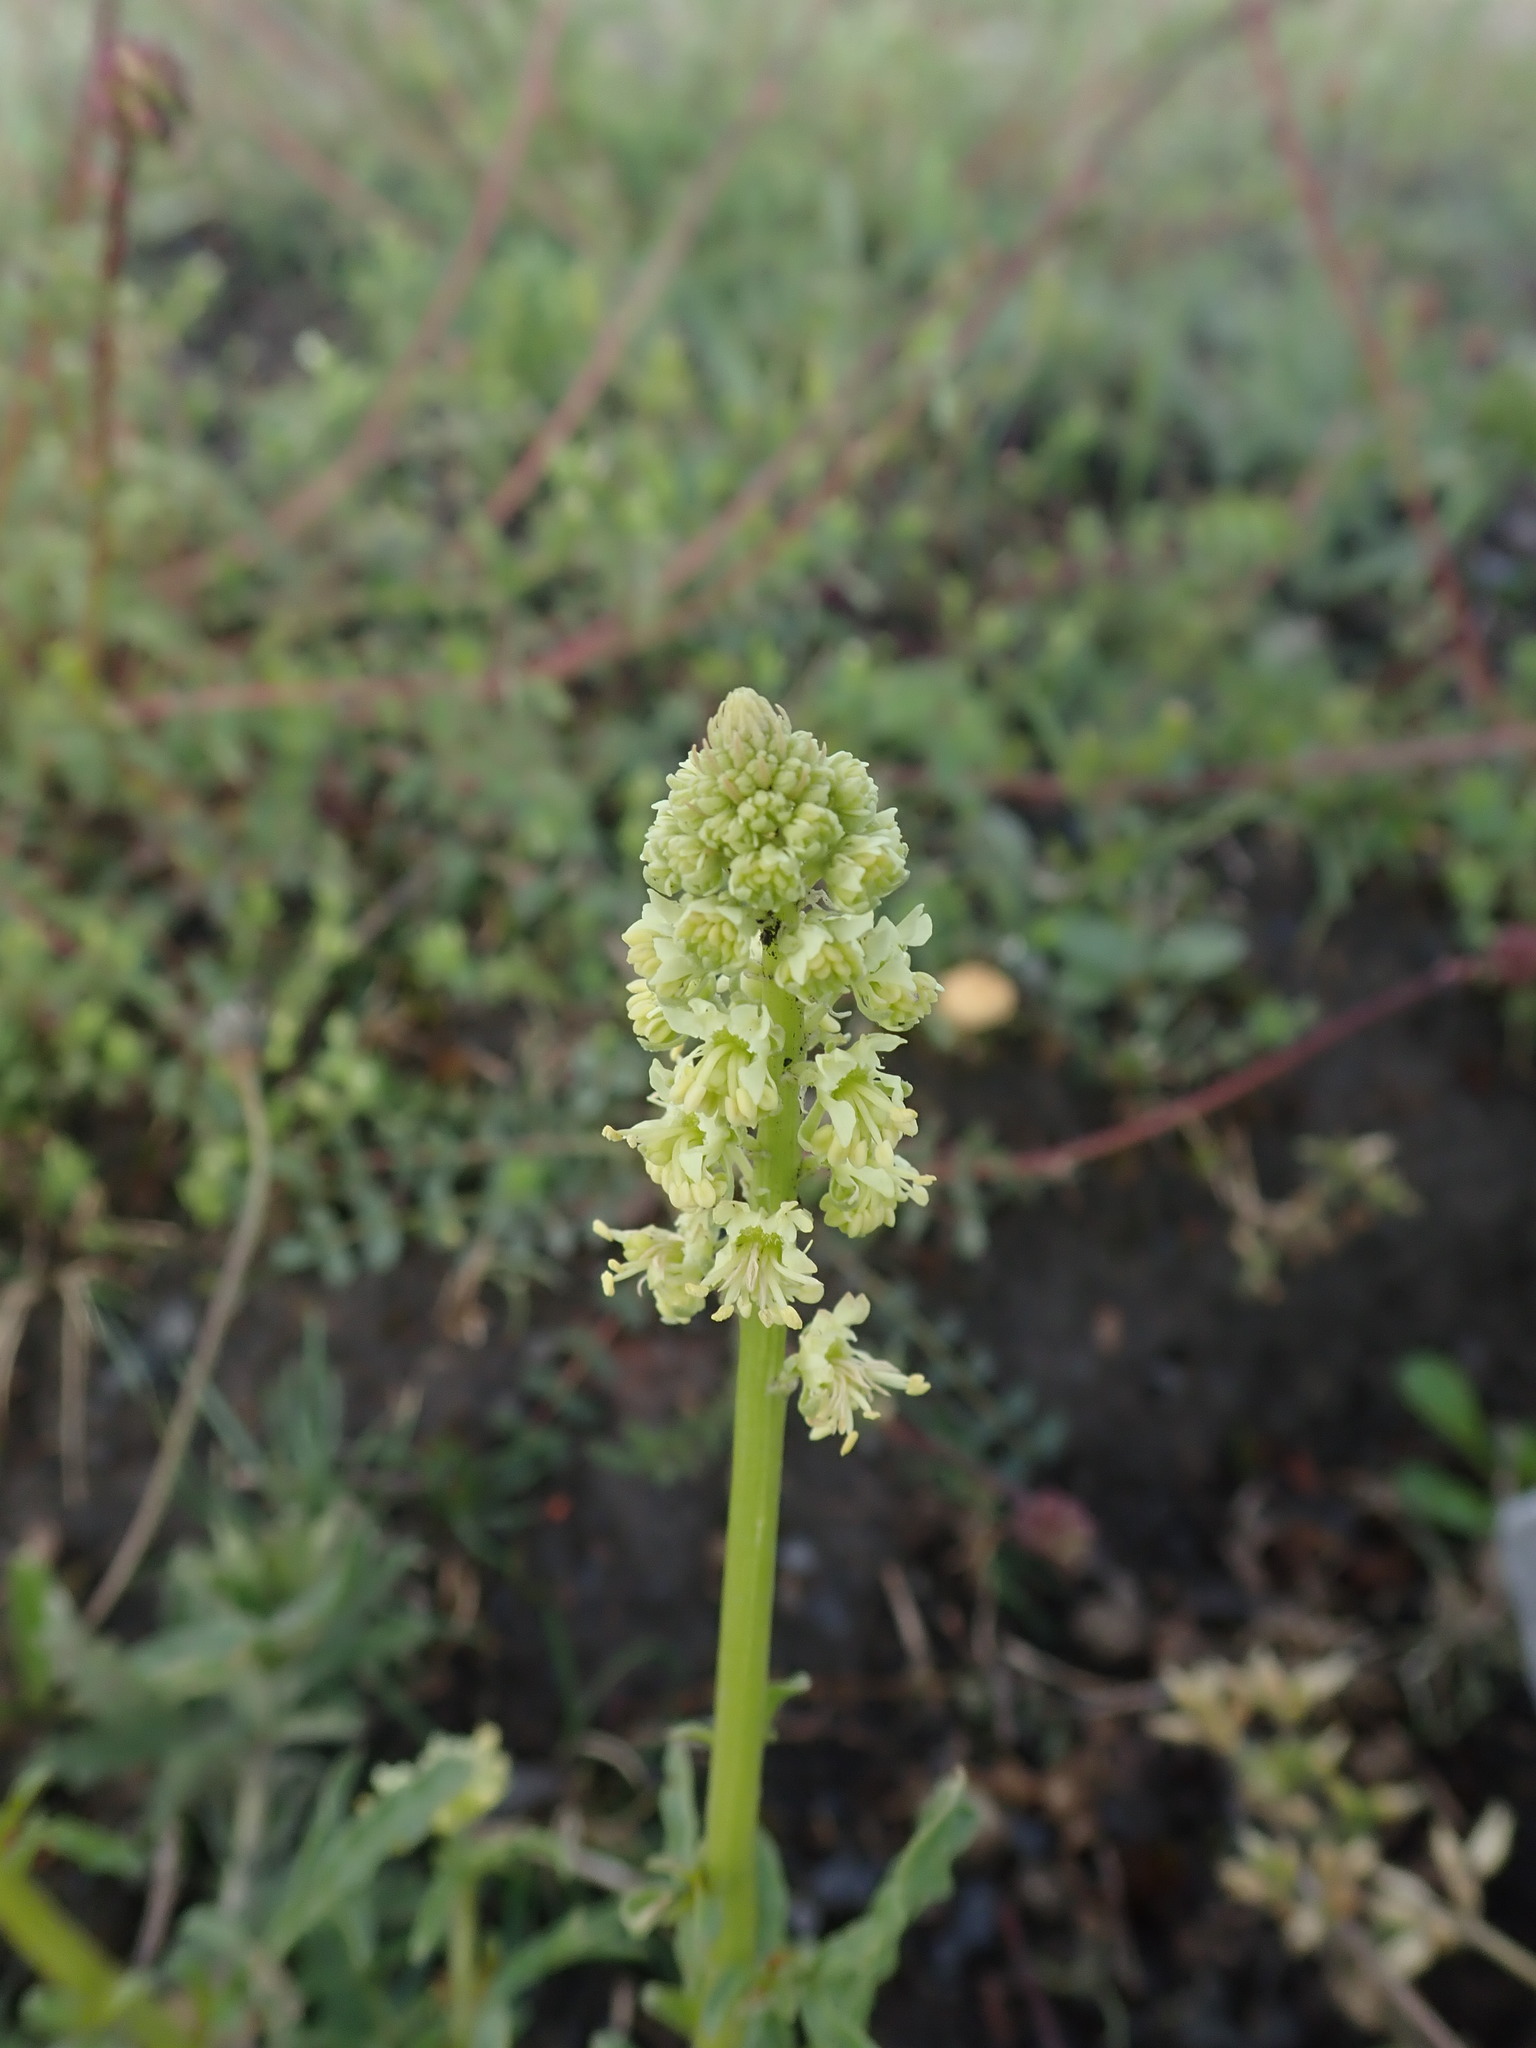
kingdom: Plantae
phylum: Tracheophyta
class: Magnoliopsida
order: Brassicales
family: Resedaceae
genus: Reseda
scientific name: Reseda lutea
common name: Wild mignonette
